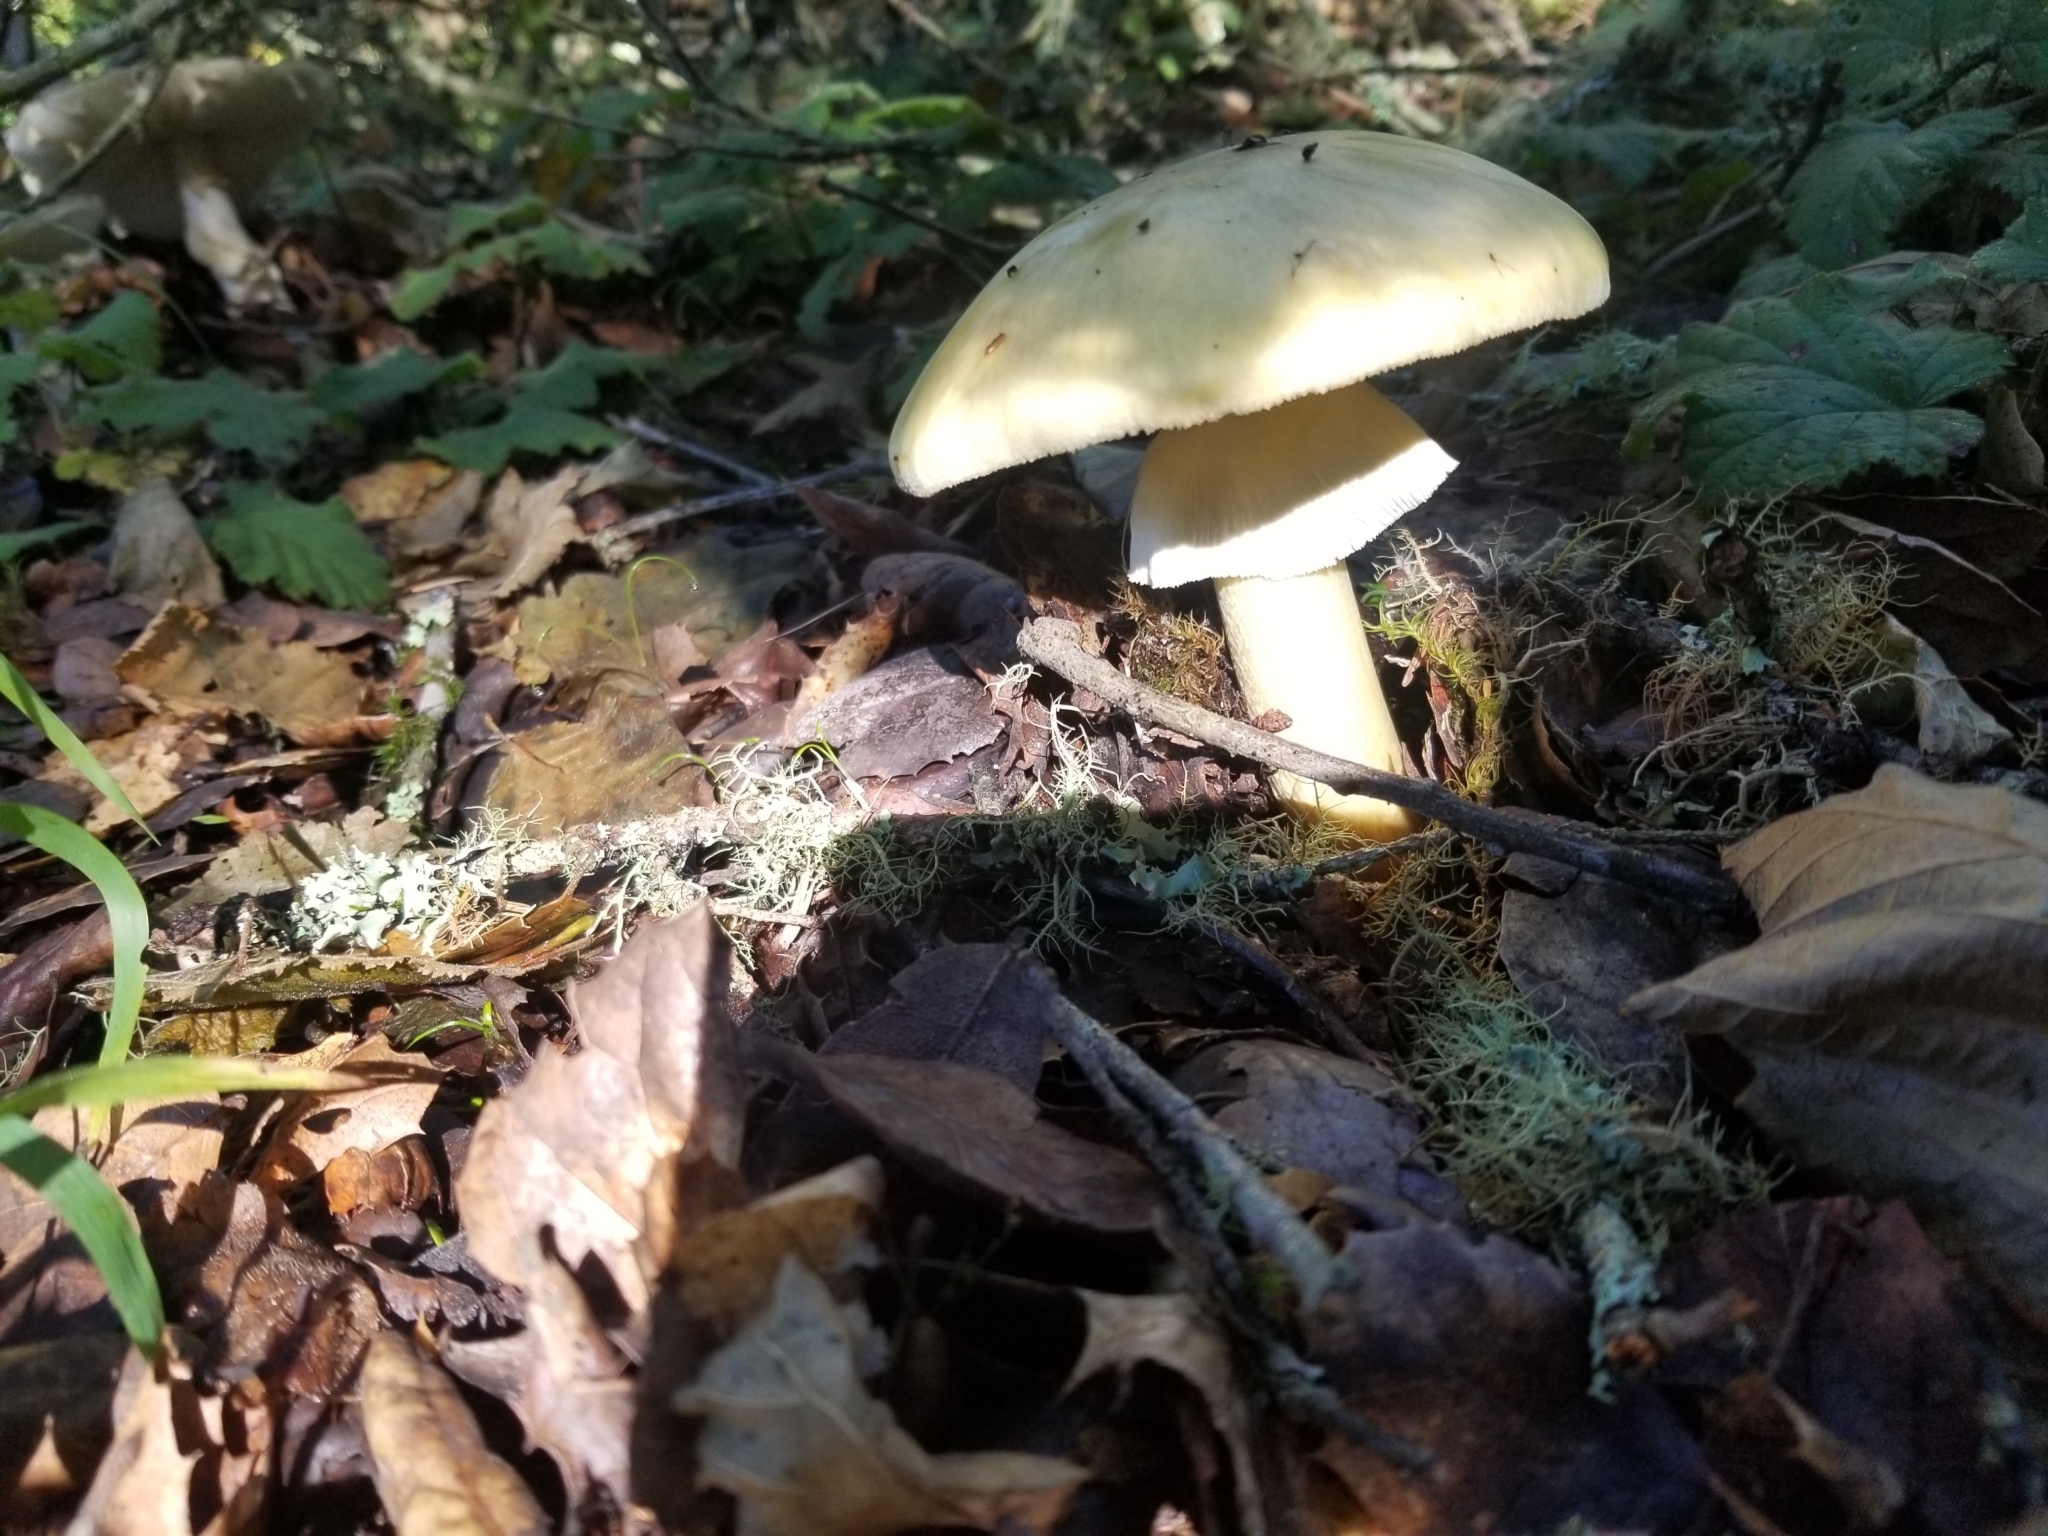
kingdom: Fungi
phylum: Basidiomycota
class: Agaricomycetes
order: Agaricales
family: Amanitaceae
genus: Amanita
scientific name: Amanita phalloides
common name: Death cap
